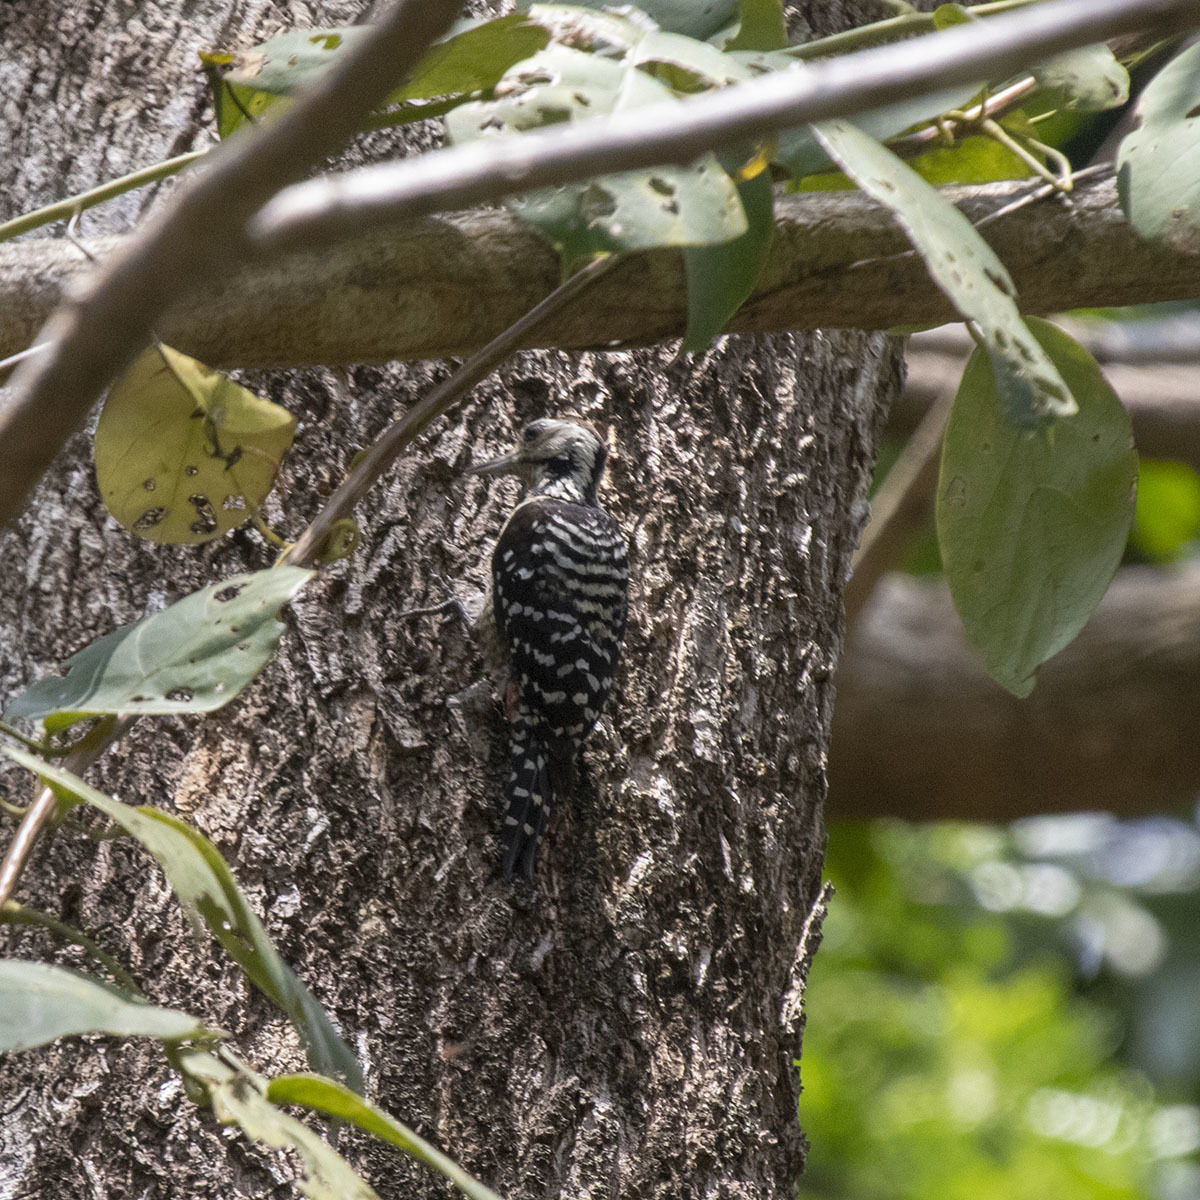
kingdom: Animalia
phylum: Chordata
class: Aves
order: Piciformes
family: Picidae
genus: Dendrocopos
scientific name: Dendrocopos analis
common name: Freckle-breasted woodpecker
